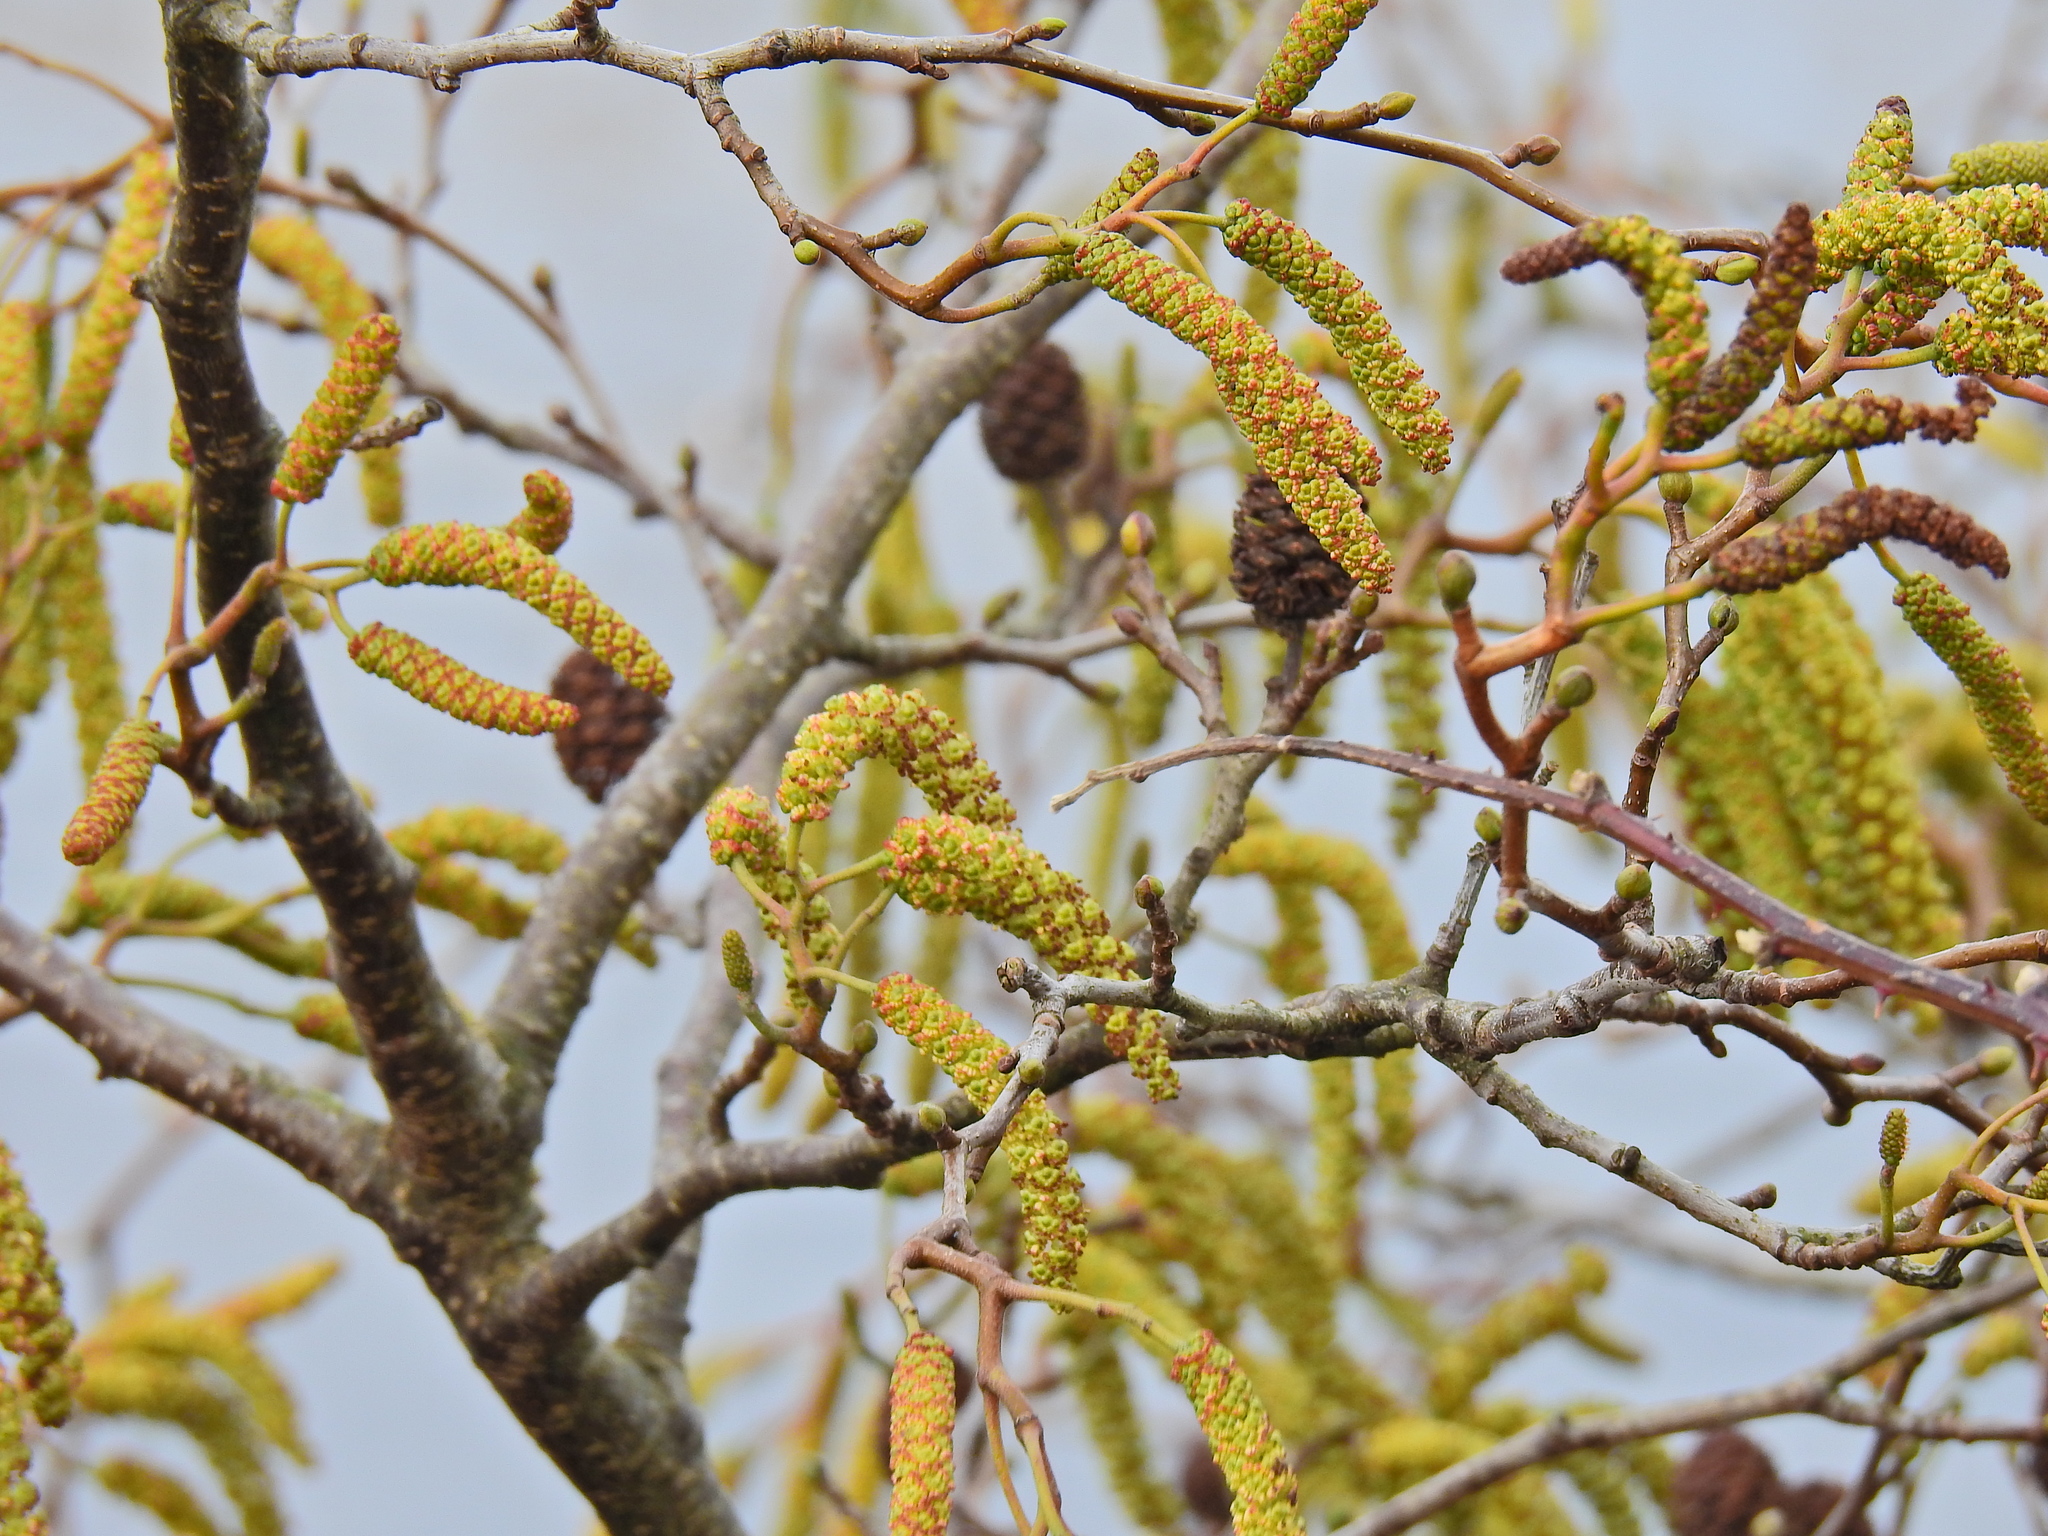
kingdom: Plantae
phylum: Tracheophyta
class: Magnoliopsida
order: Fagales
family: Betulaceae
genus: Alnus
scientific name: Alnus glutinosa
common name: Black alder
